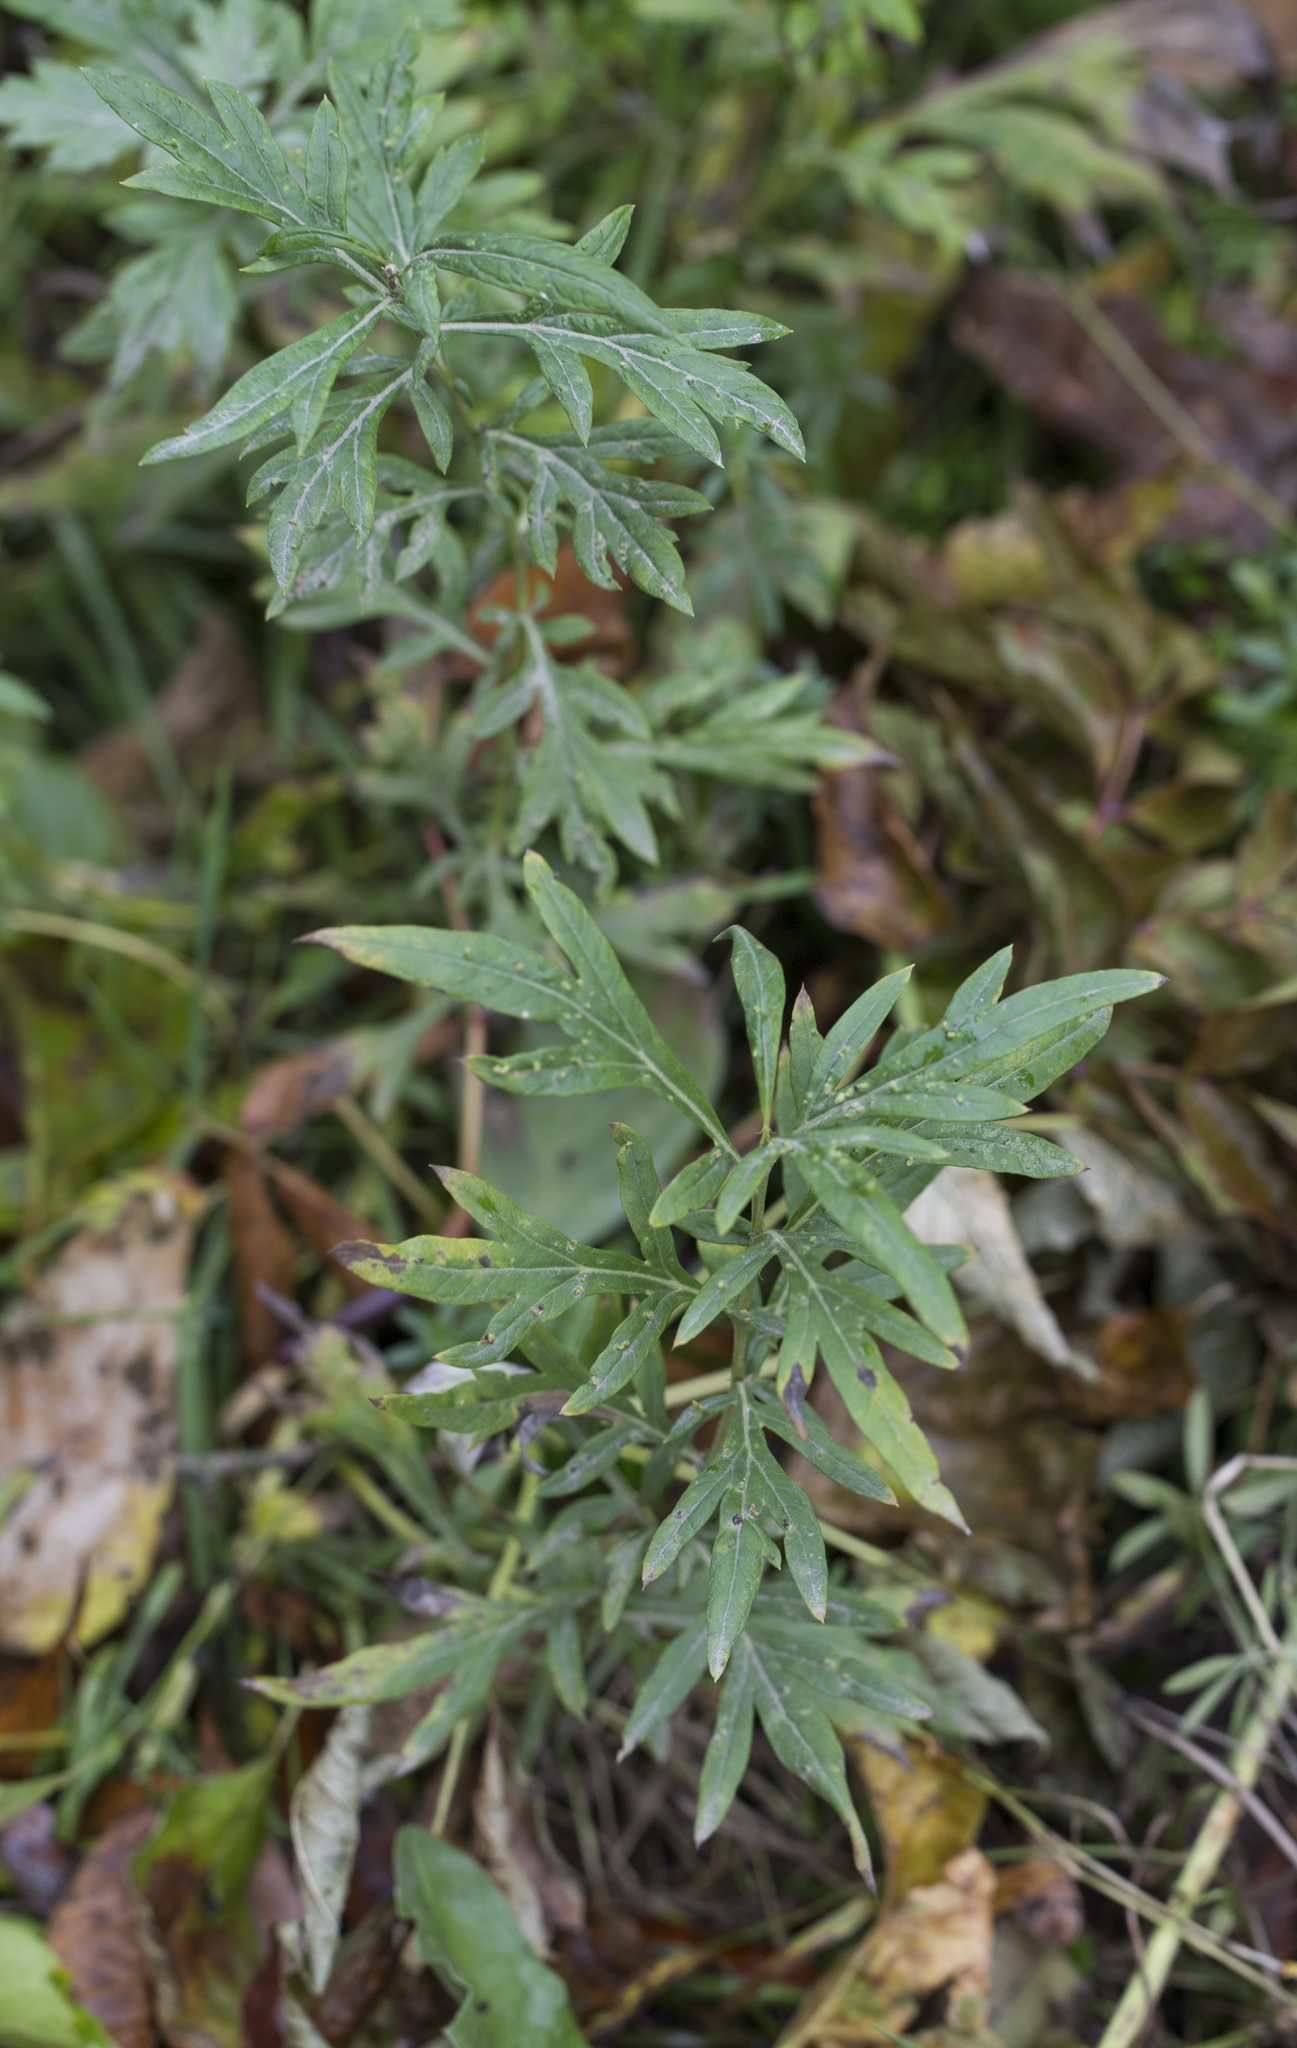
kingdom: Plantae
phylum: Tracheophyta
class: Magnoliopsida
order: Asterales
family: Asteraceae
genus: Artemisia
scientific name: Artemisia vulgaris
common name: Mugwort
